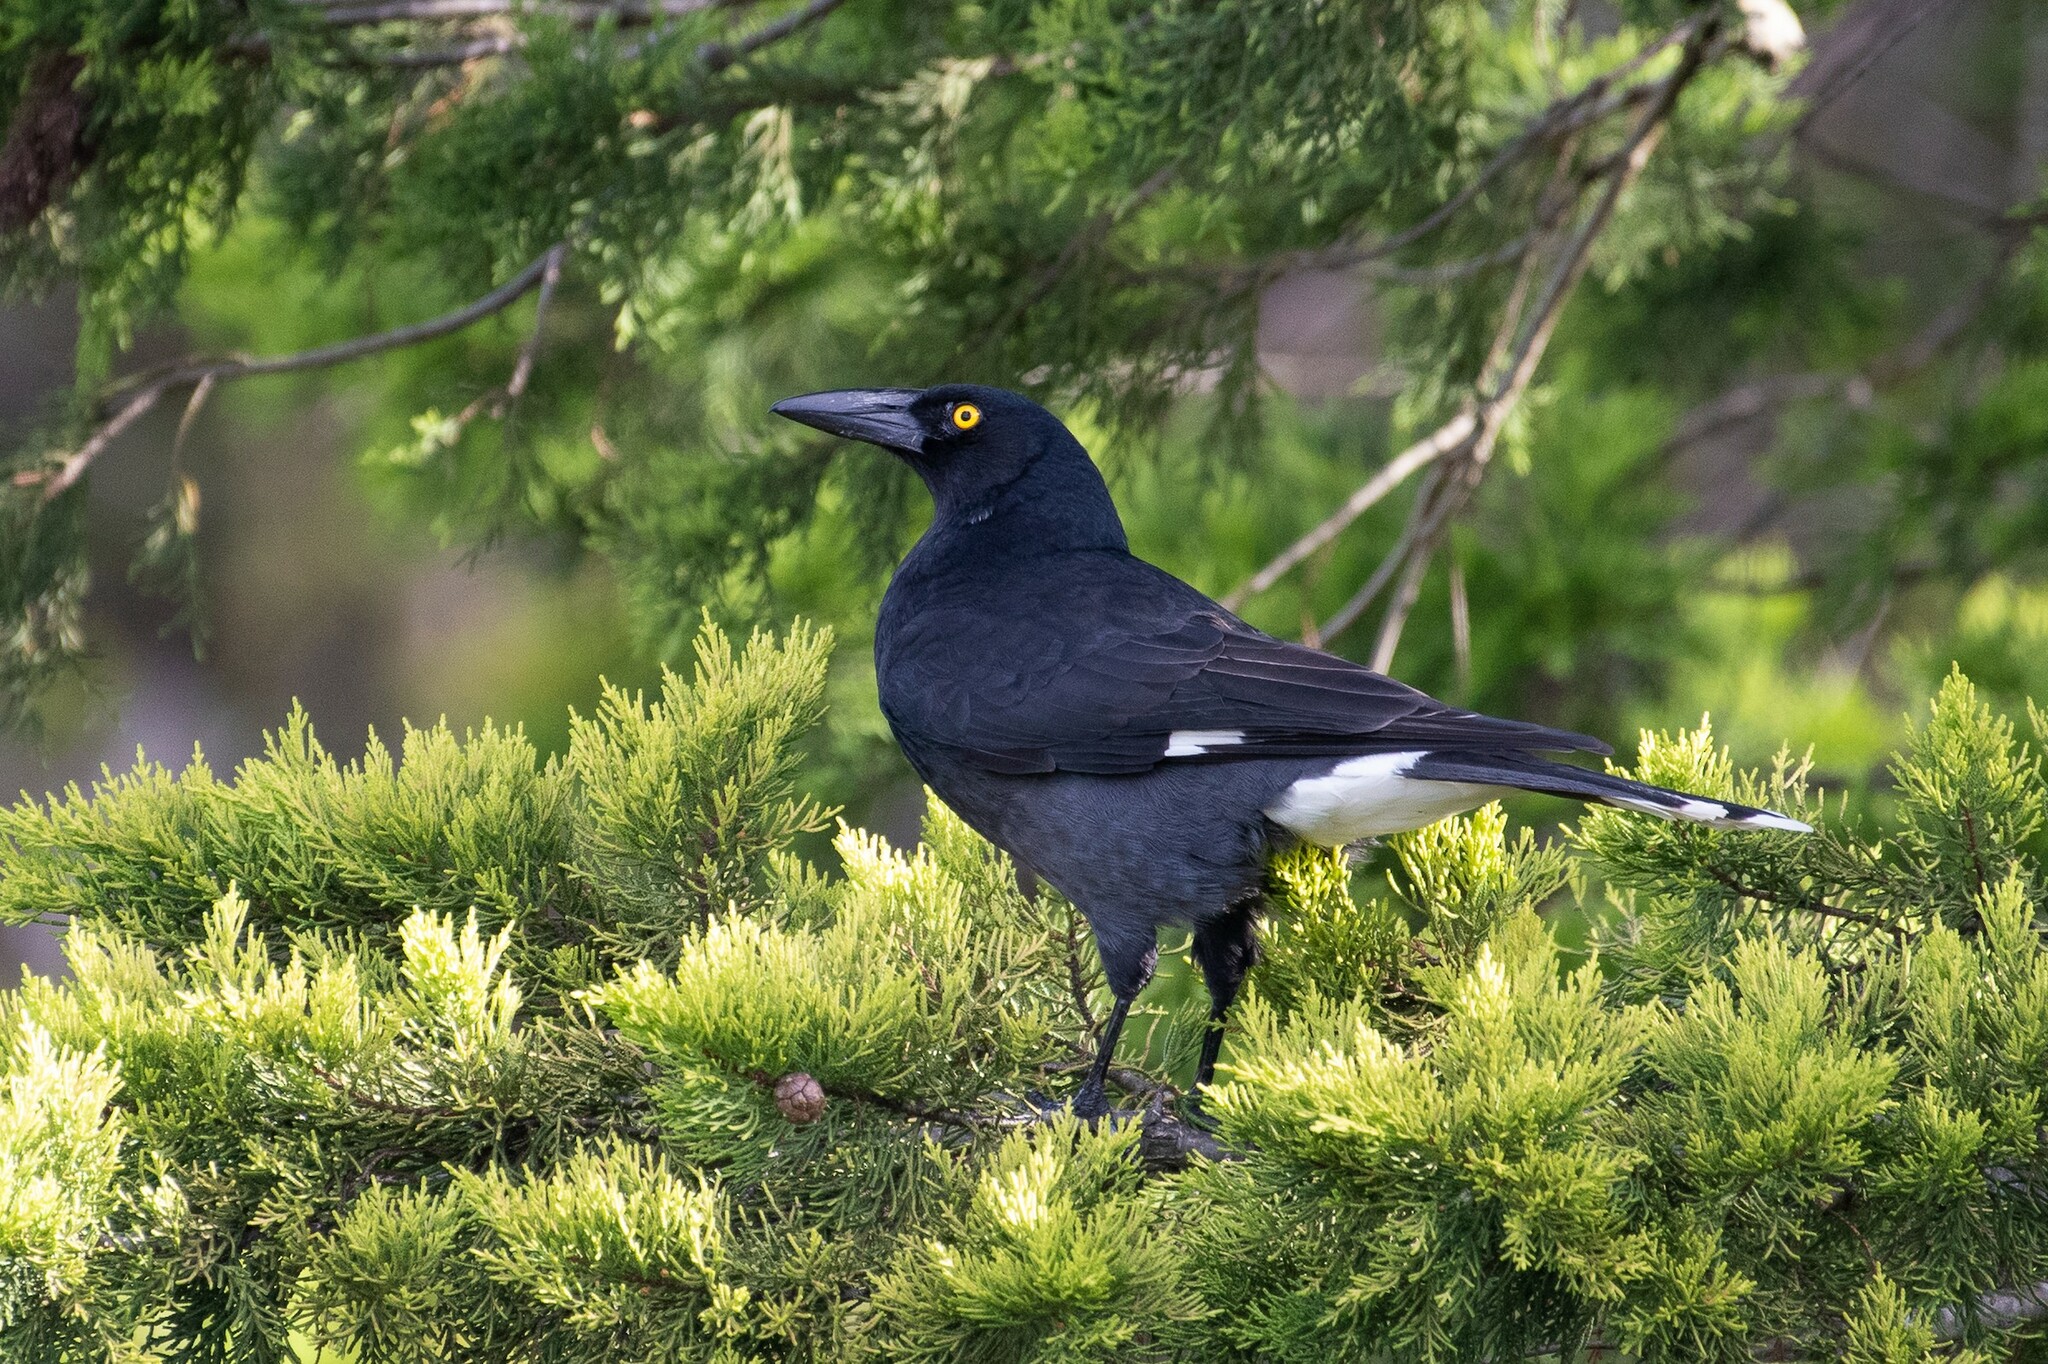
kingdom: Animalia
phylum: Chordata
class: Aves
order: Passeriformes
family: Cracticidae
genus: Strepera
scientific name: Strepera graculina
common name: Pied currawong
